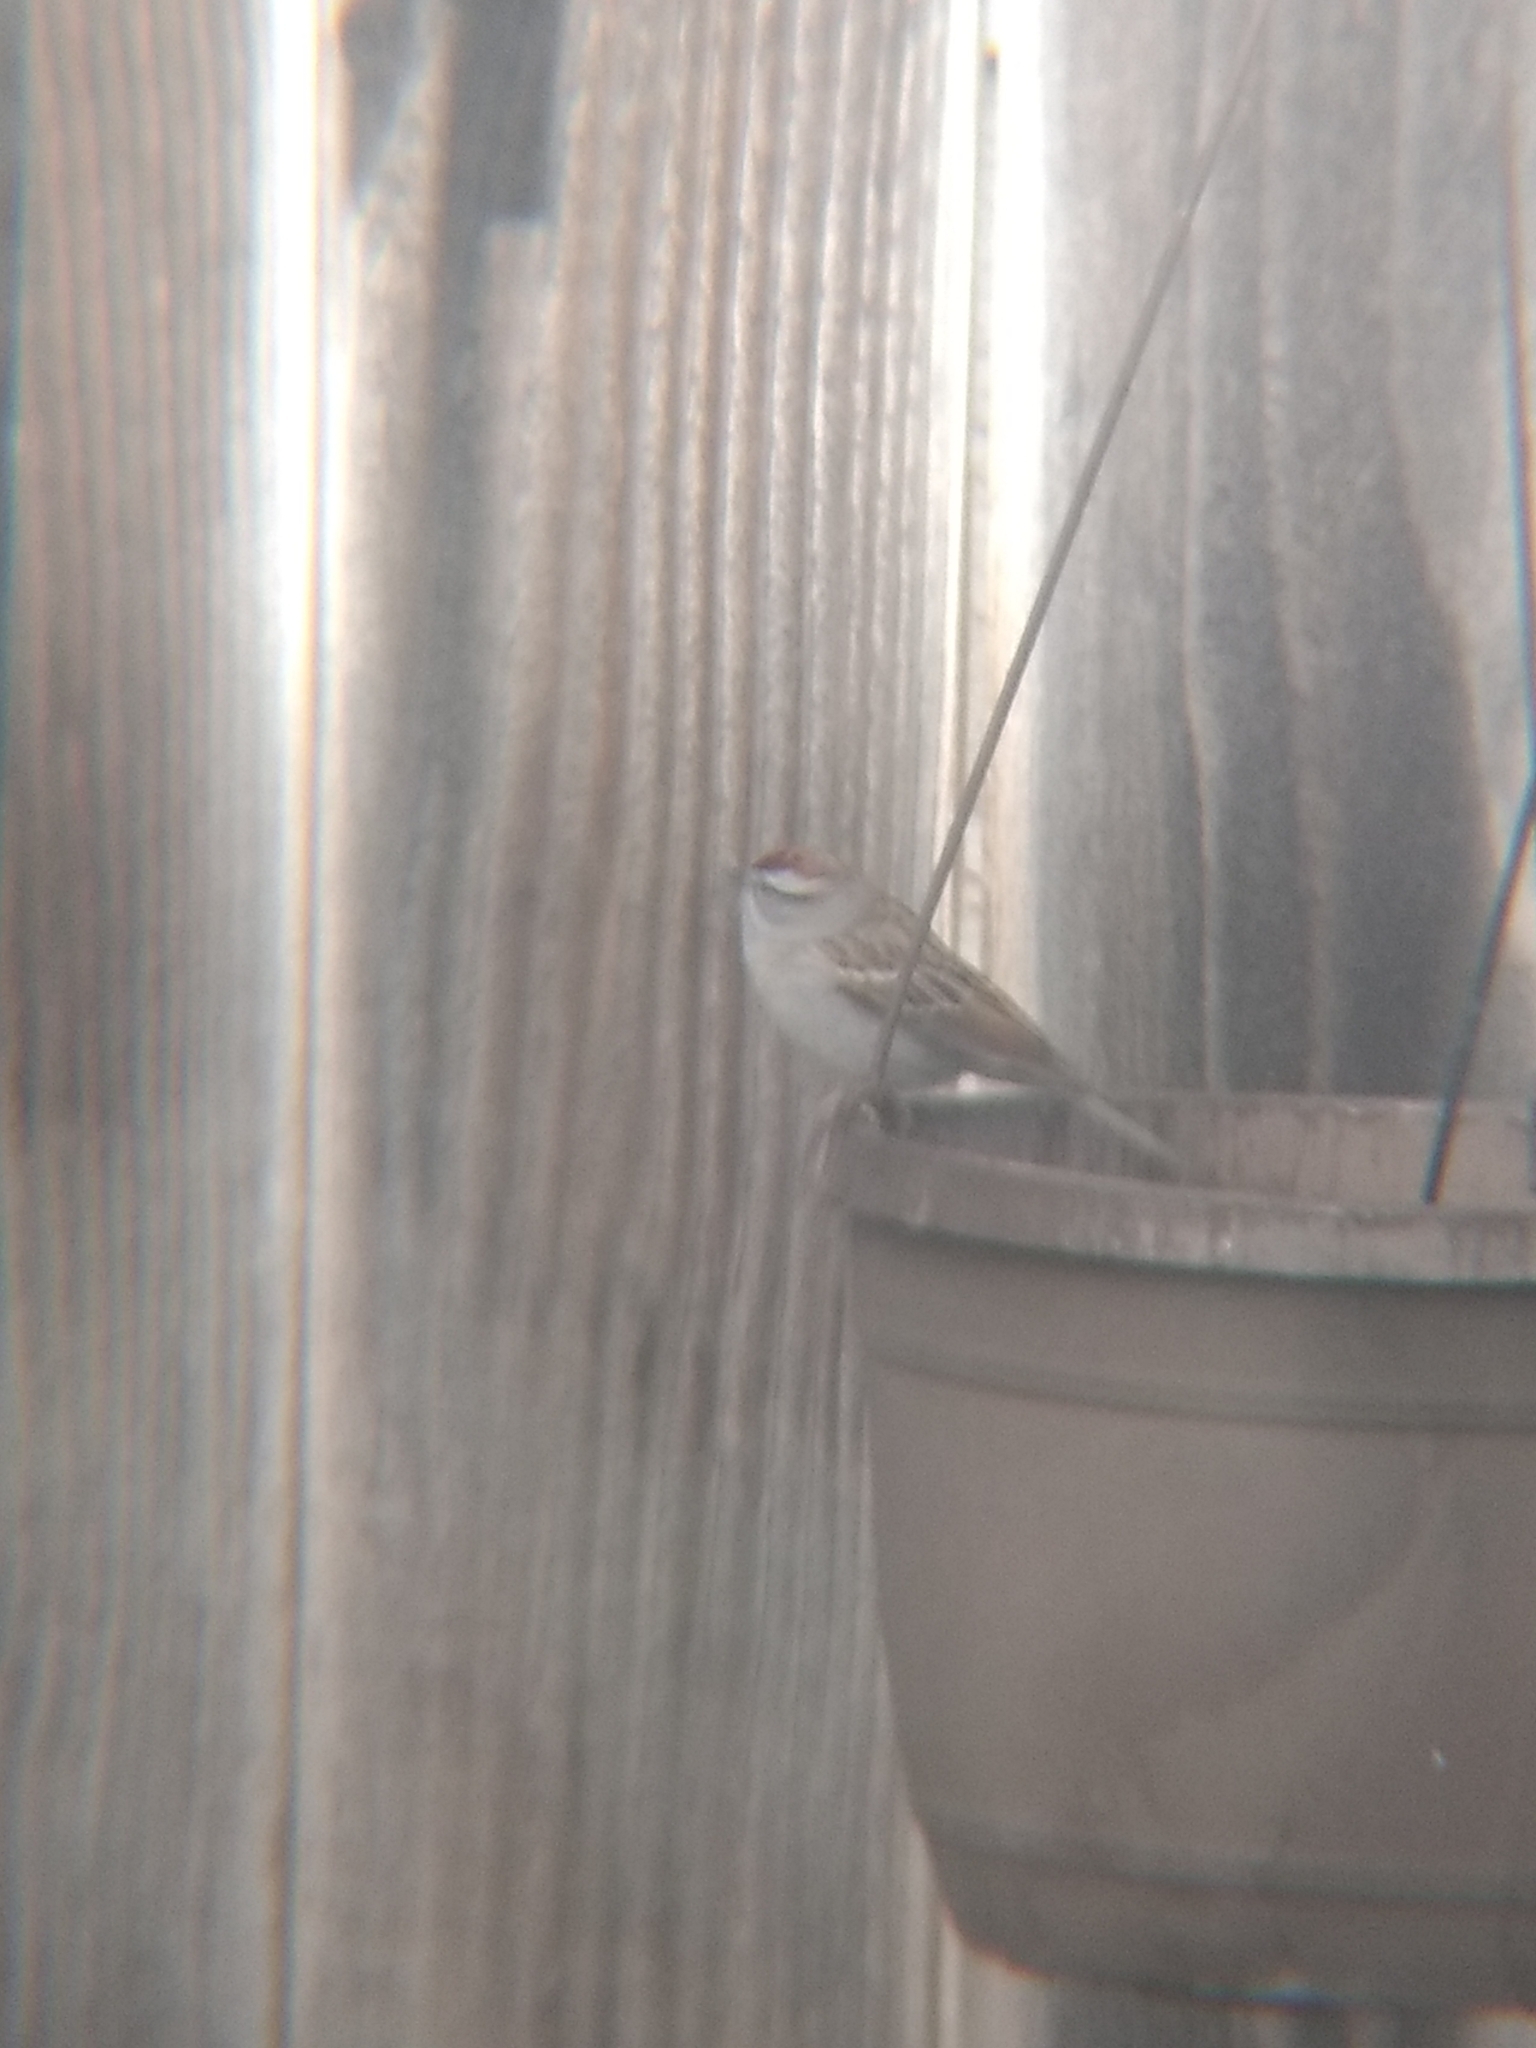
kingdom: Animalia
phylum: Chordata
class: Aves
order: Passeriformes
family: Passerellidae
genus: Spizella
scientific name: Spizella passerina
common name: Chipping sparrow
